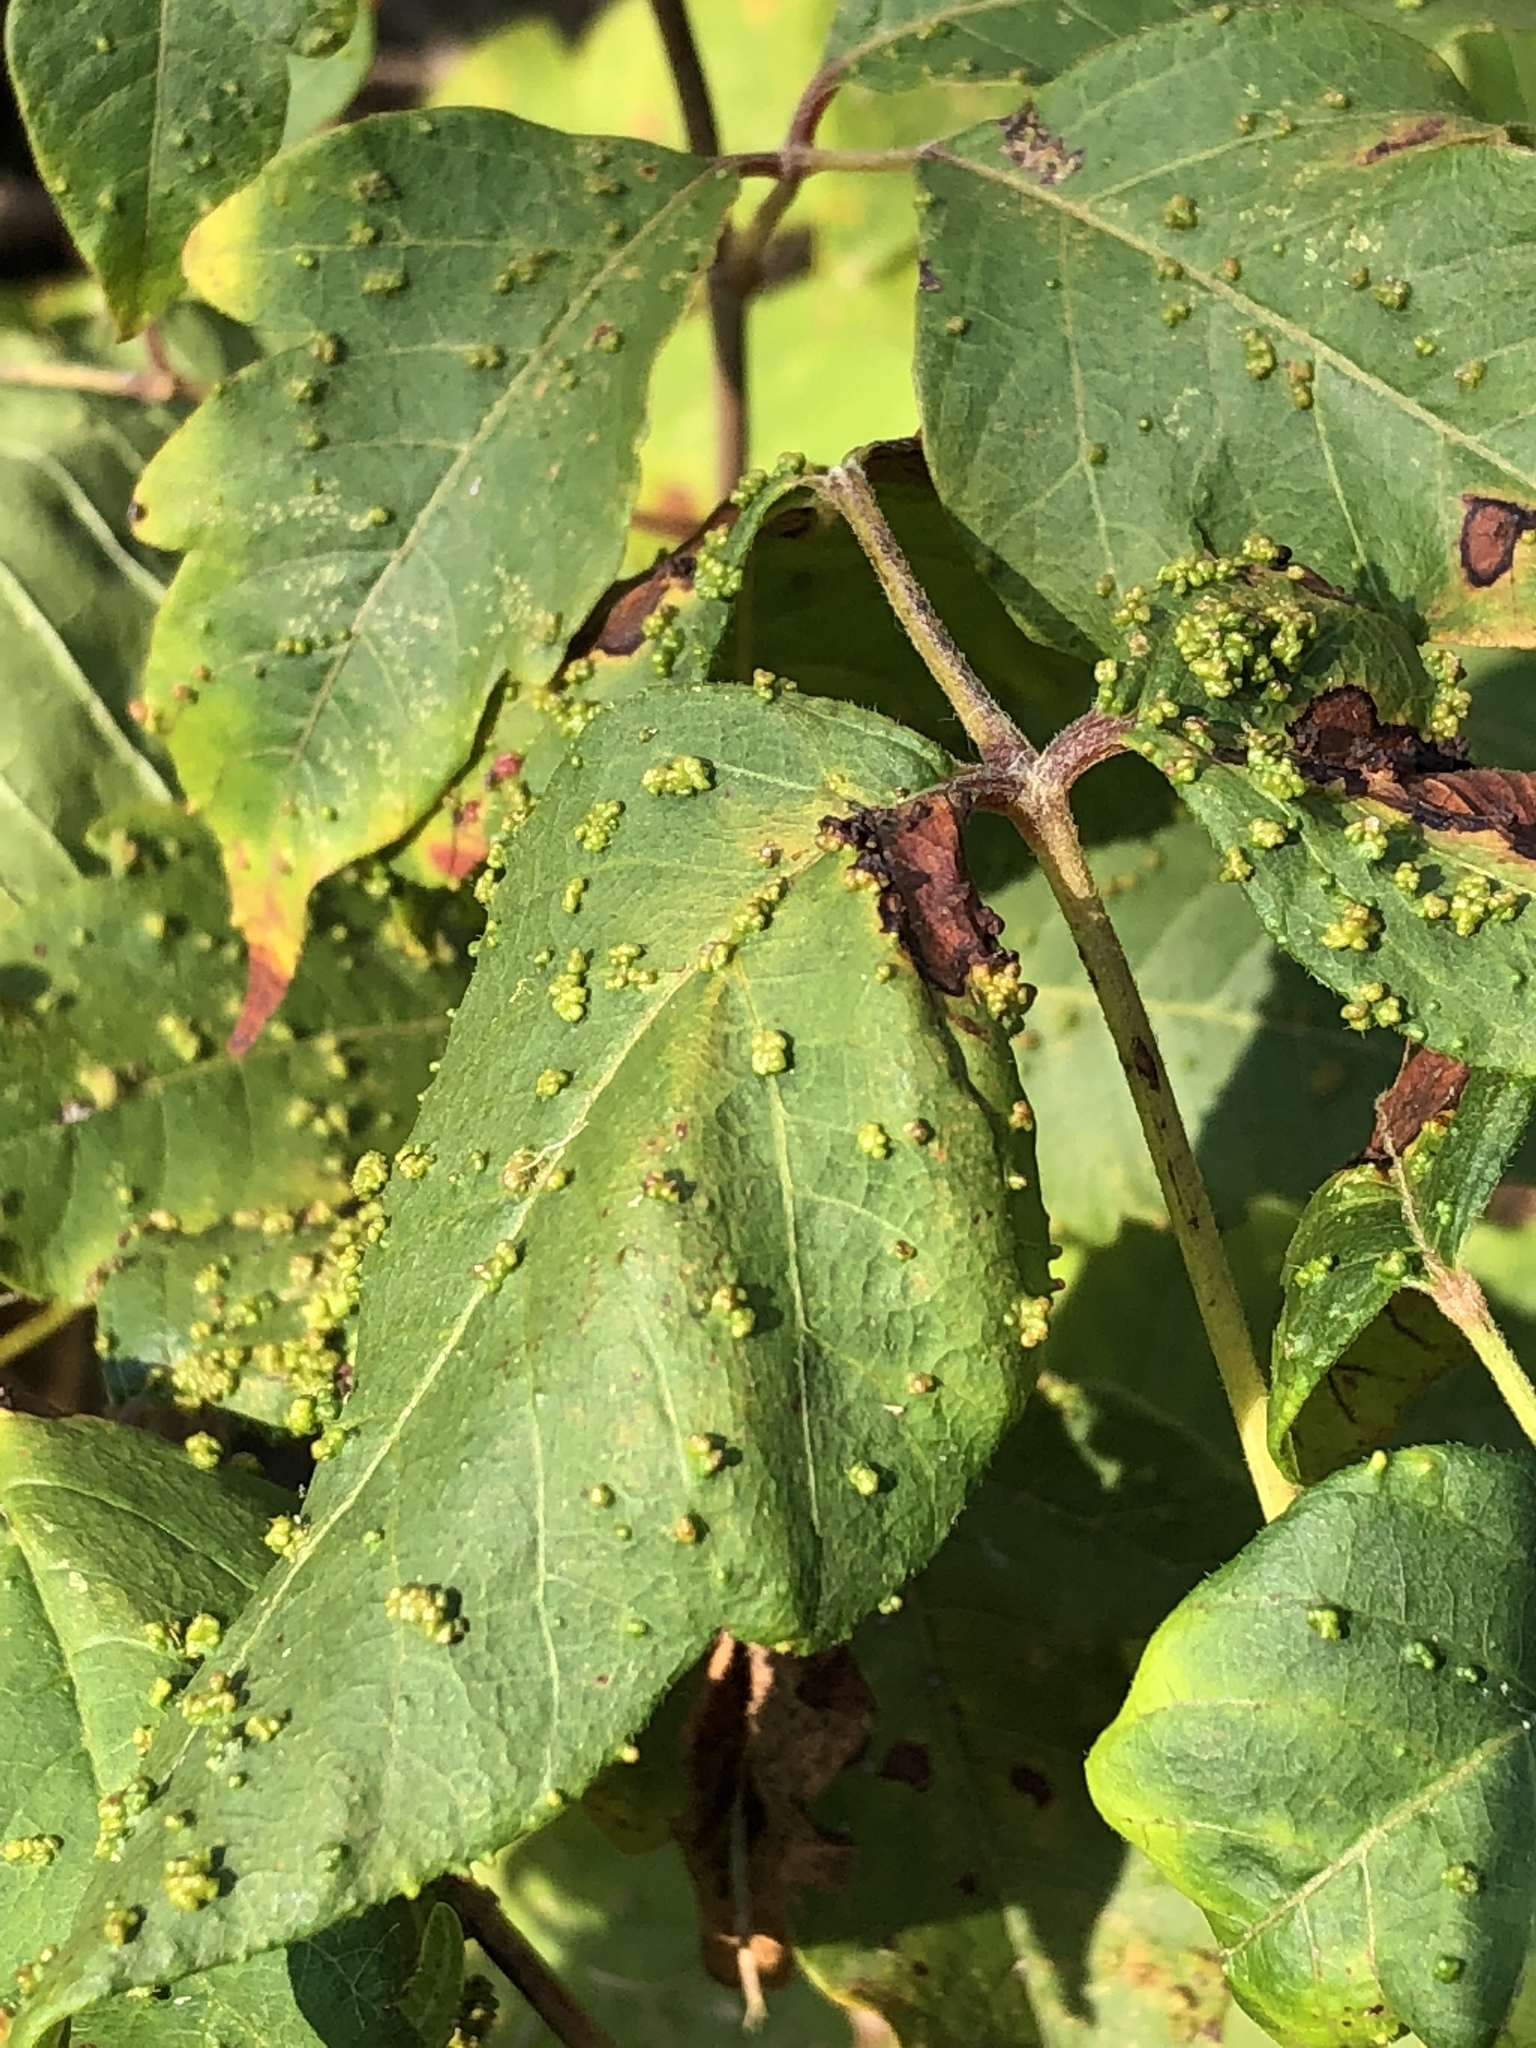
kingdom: Animalia
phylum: Arthropoda
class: Arachnida
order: Trombidiformes
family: Eriophyidae
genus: Aculops
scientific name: Aculops
